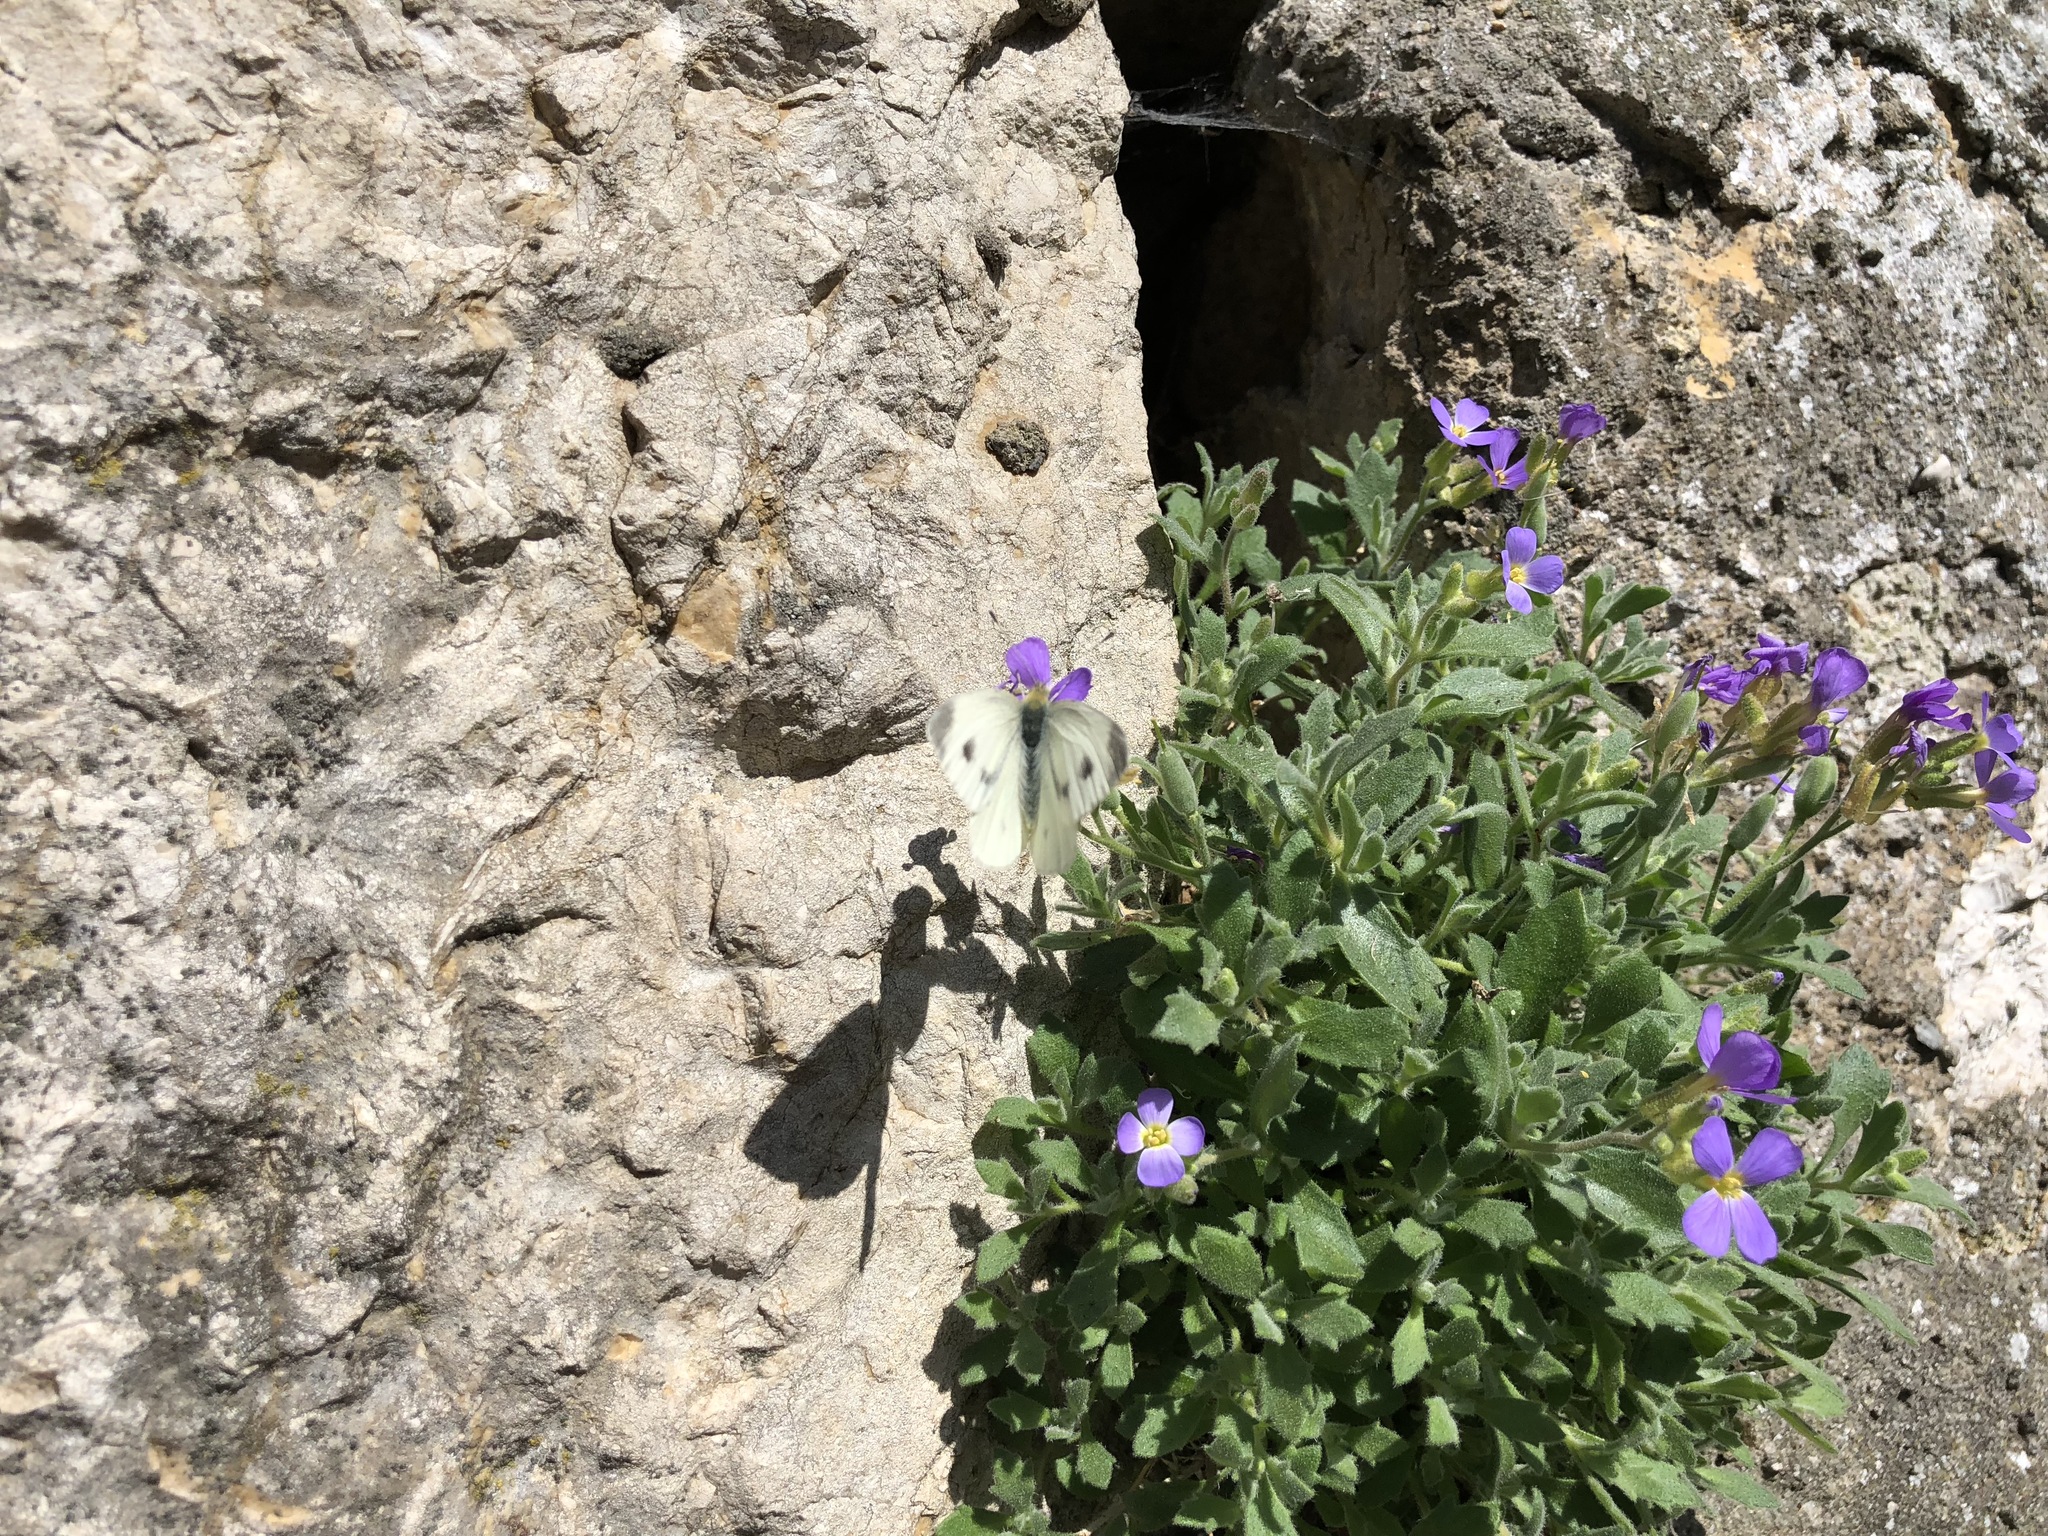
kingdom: Animalia
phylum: Arthropoda
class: Insecta
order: Lepidoptera
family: Pieridae
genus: Pieris
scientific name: Pieris rapae
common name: Small white
